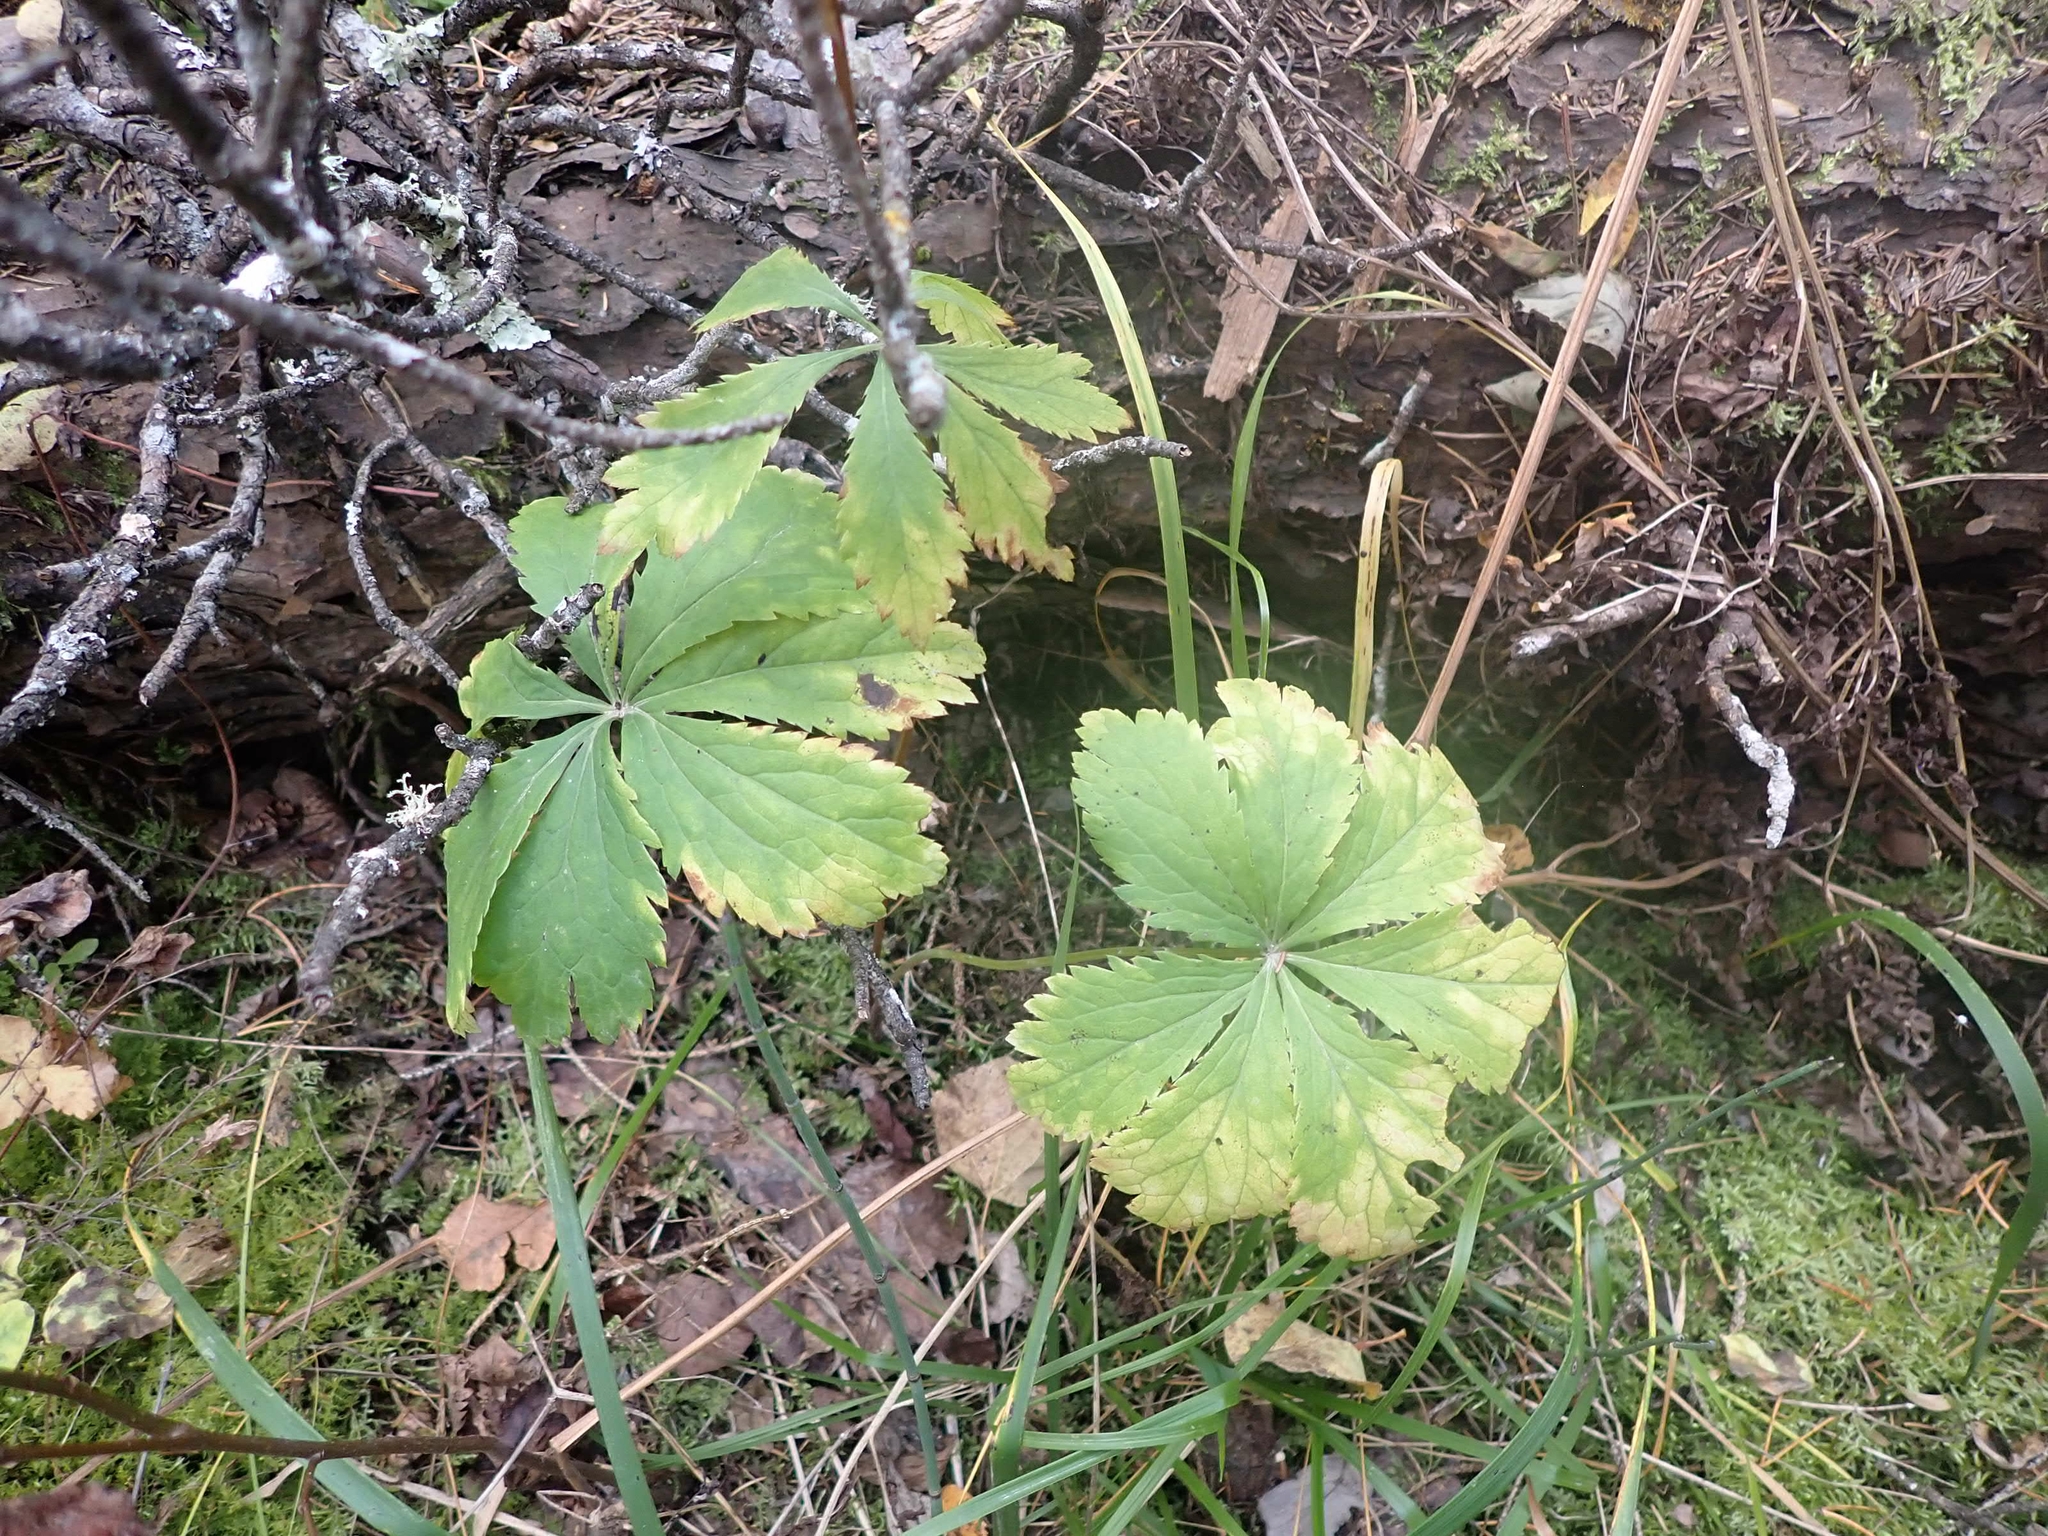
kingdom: Plantae
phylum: Tracheophyta
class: Magnoliopsida
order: Apiales
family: Apiaceae
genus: Sanicula
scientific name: Sanicula marilandica
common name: Black snakeroot
